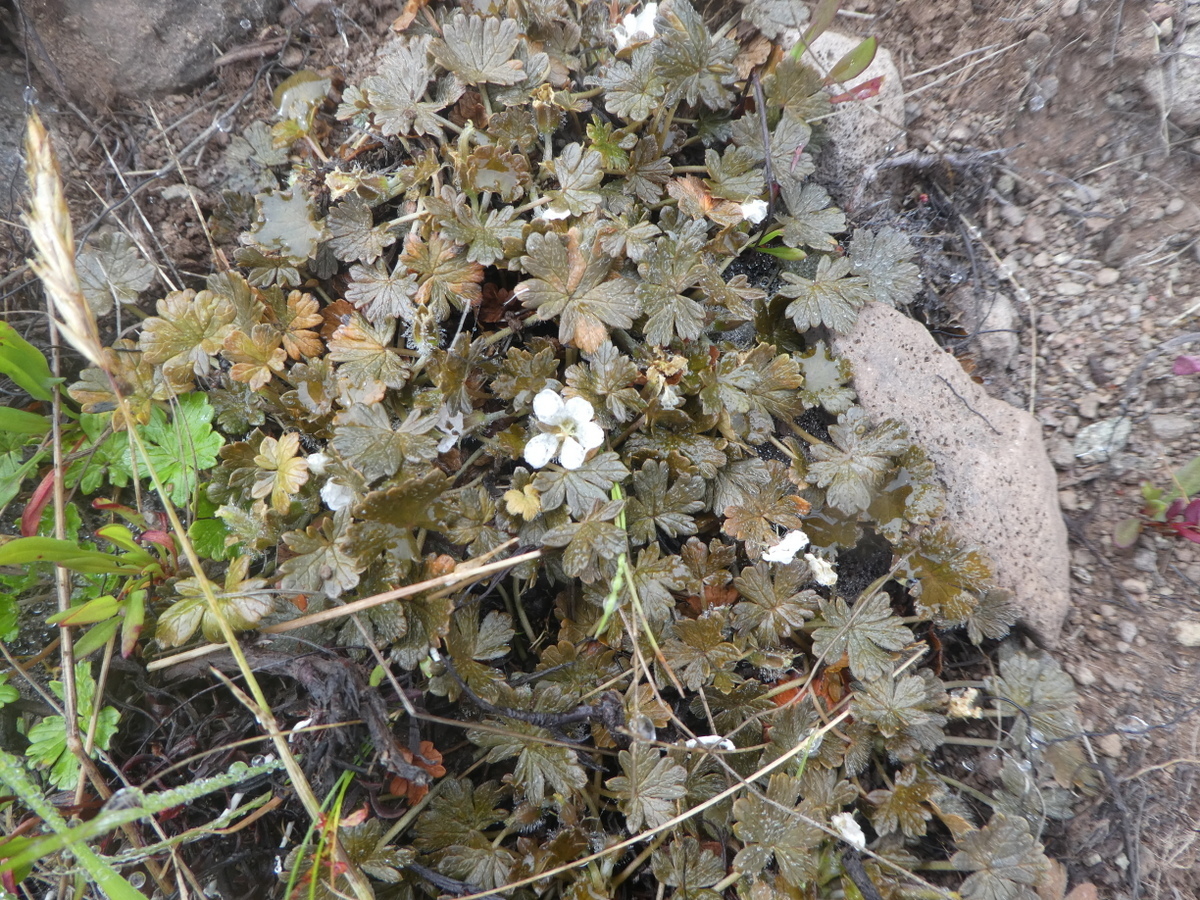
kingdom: Plantae
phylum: Tracheophyta
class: Magnoliopsida
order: Geraniales
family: Geraniaceae
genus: Geranium
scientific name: Geranium brevicaule
